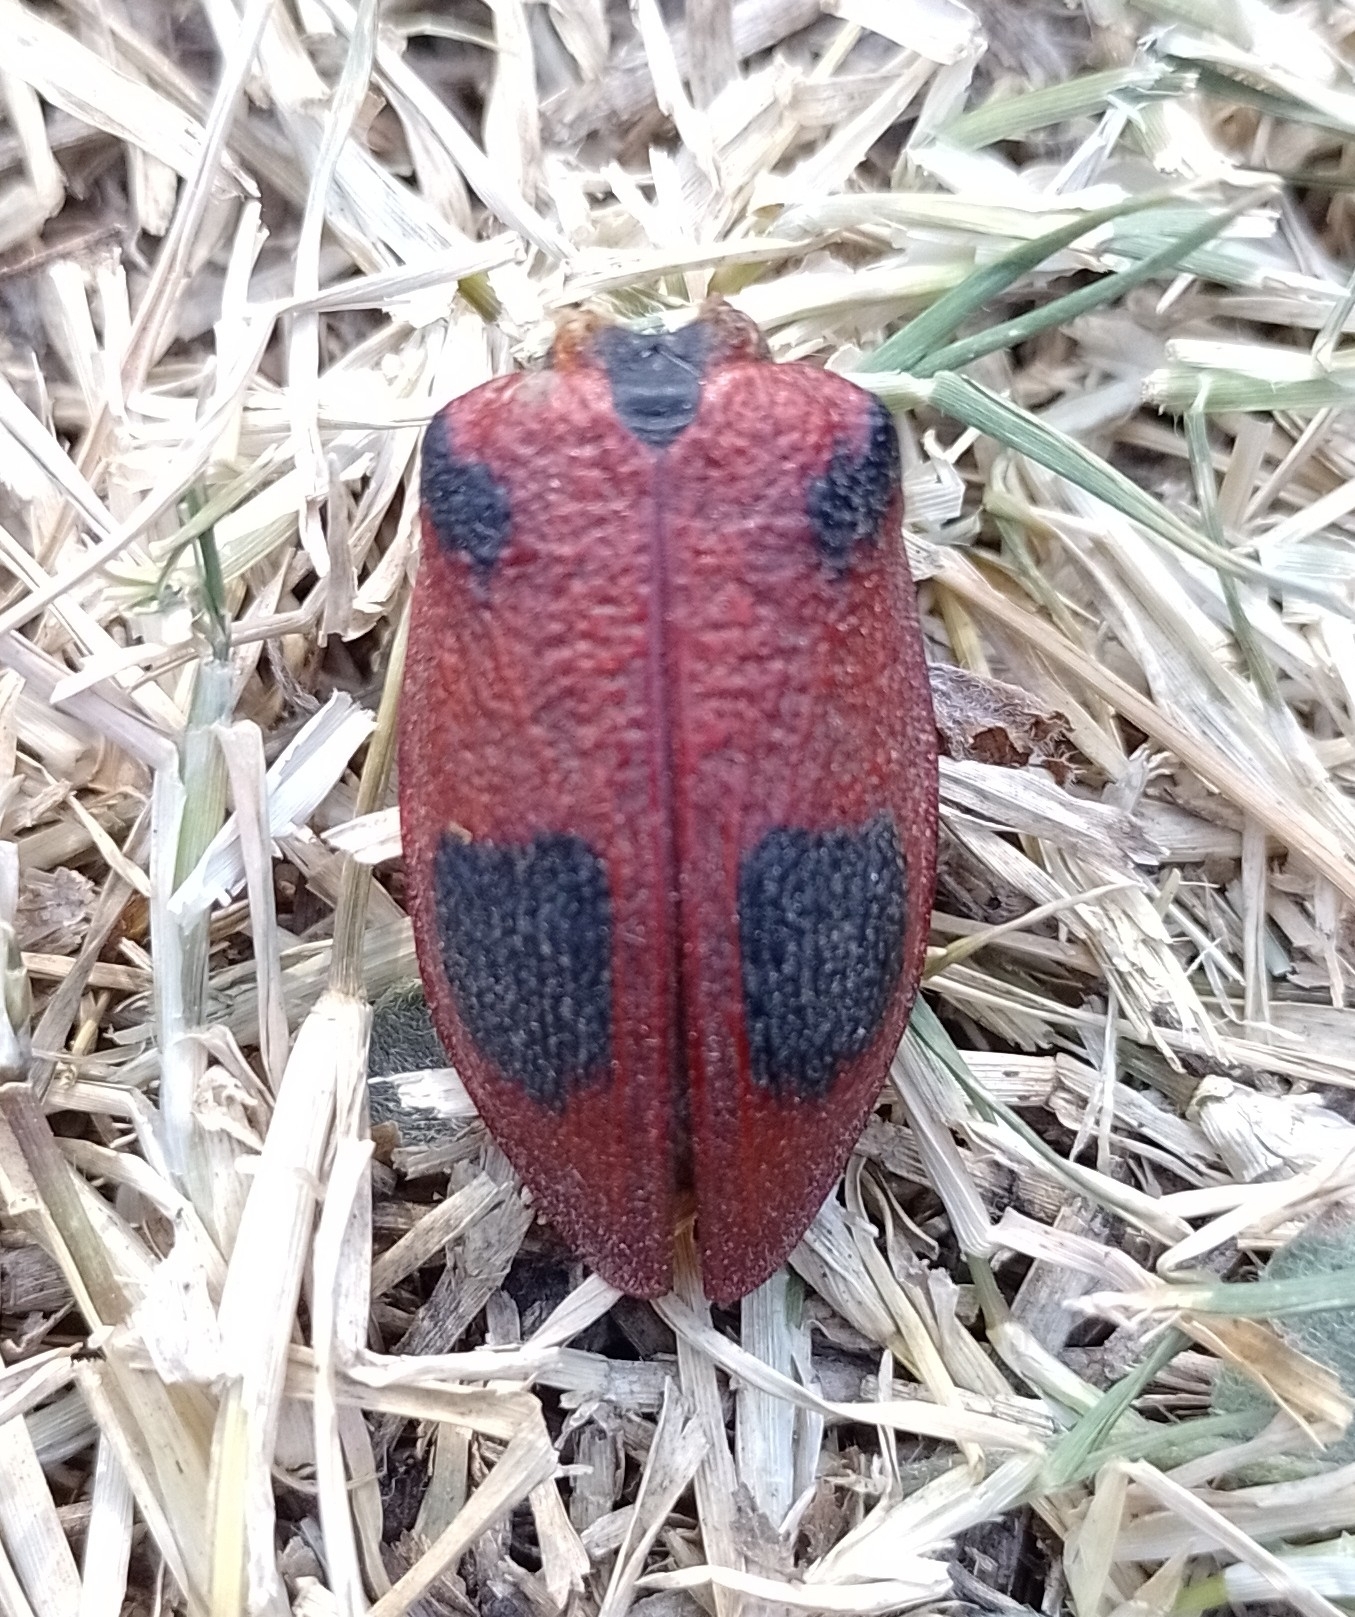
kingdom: Animalia
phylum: Arthropoda
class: Insecta
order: Coleoptera
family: Chrysomelidae
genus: Coraliomela
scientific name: Coraliomela quadrimaculata
